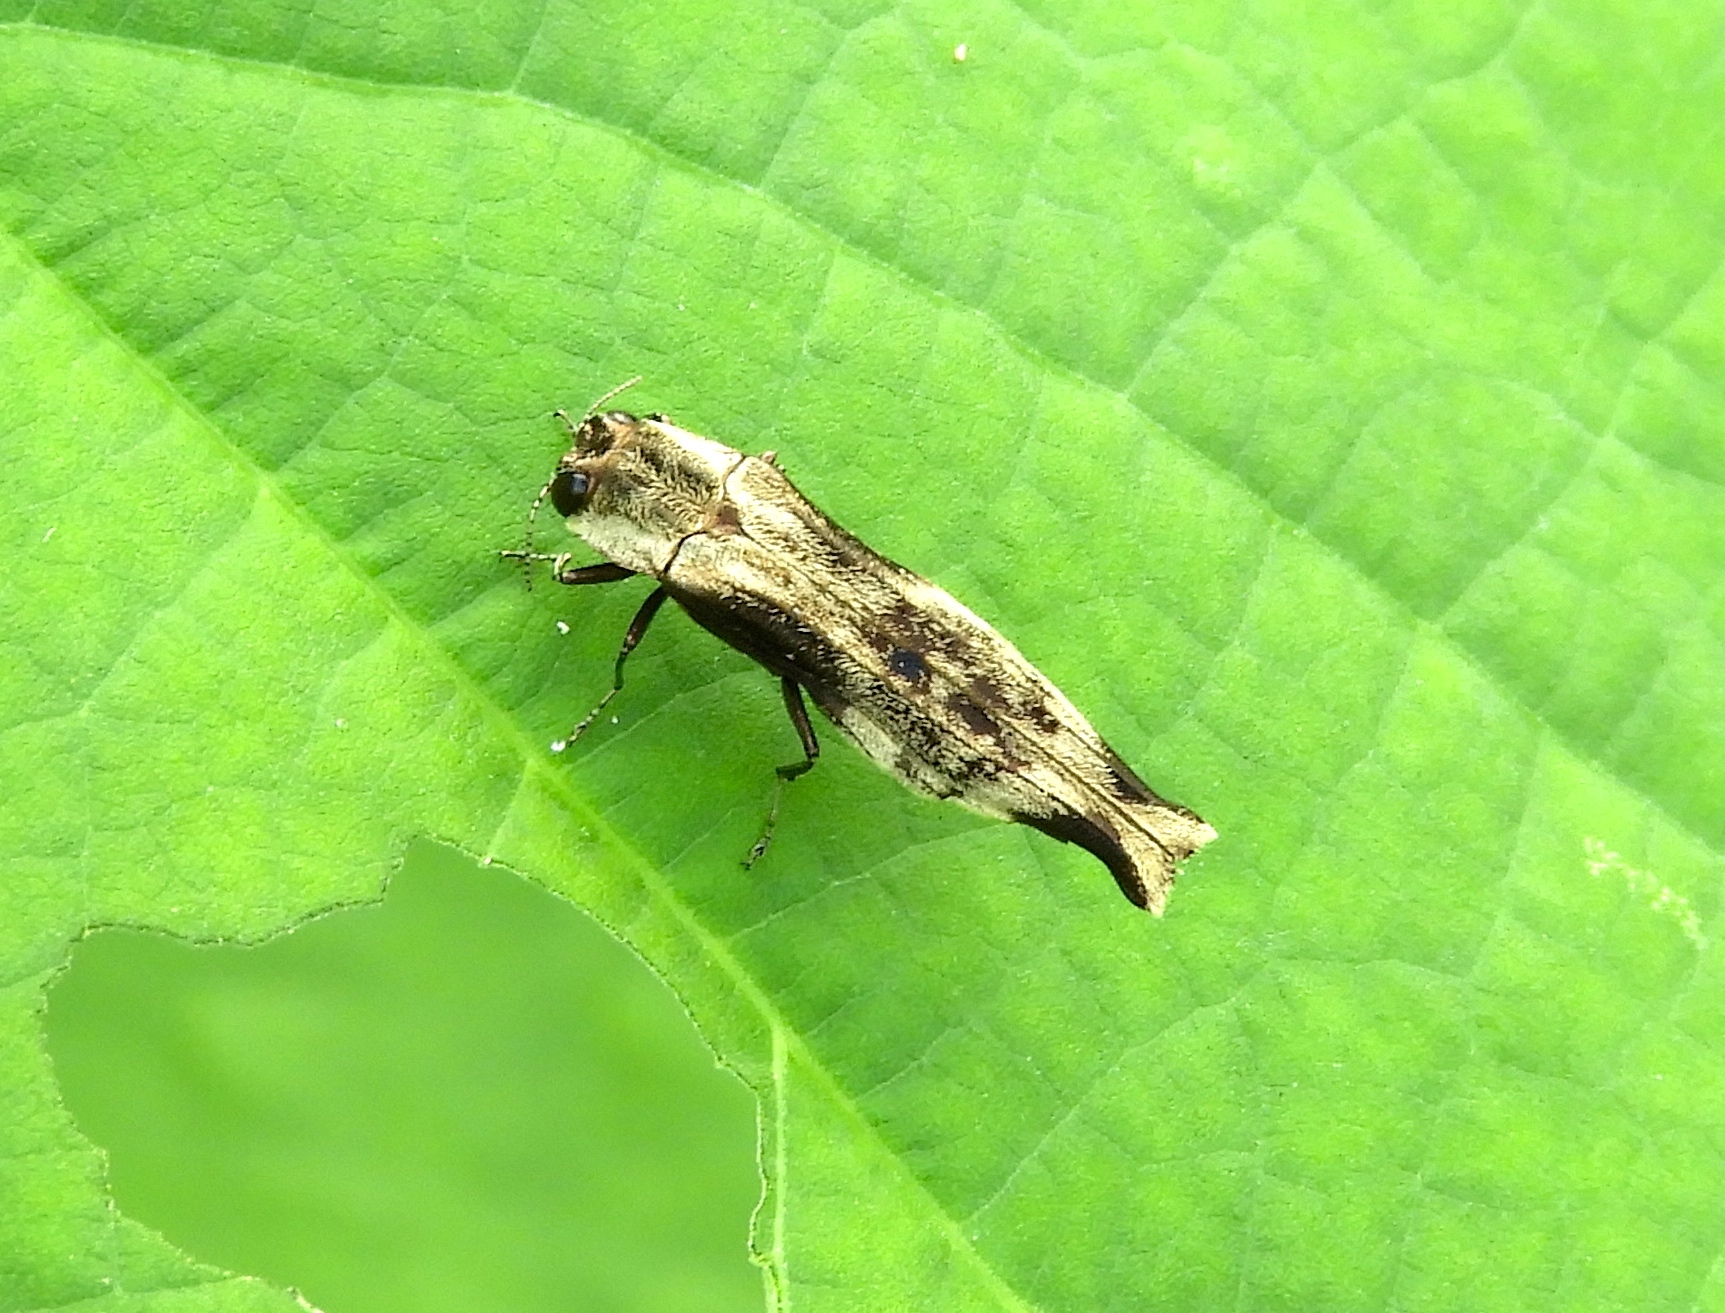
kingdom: Animalia
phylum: Arthropoda
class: Insecta
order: Coleoptera
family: Buprestidae
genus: Agrilus
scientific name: Agrilus langei
